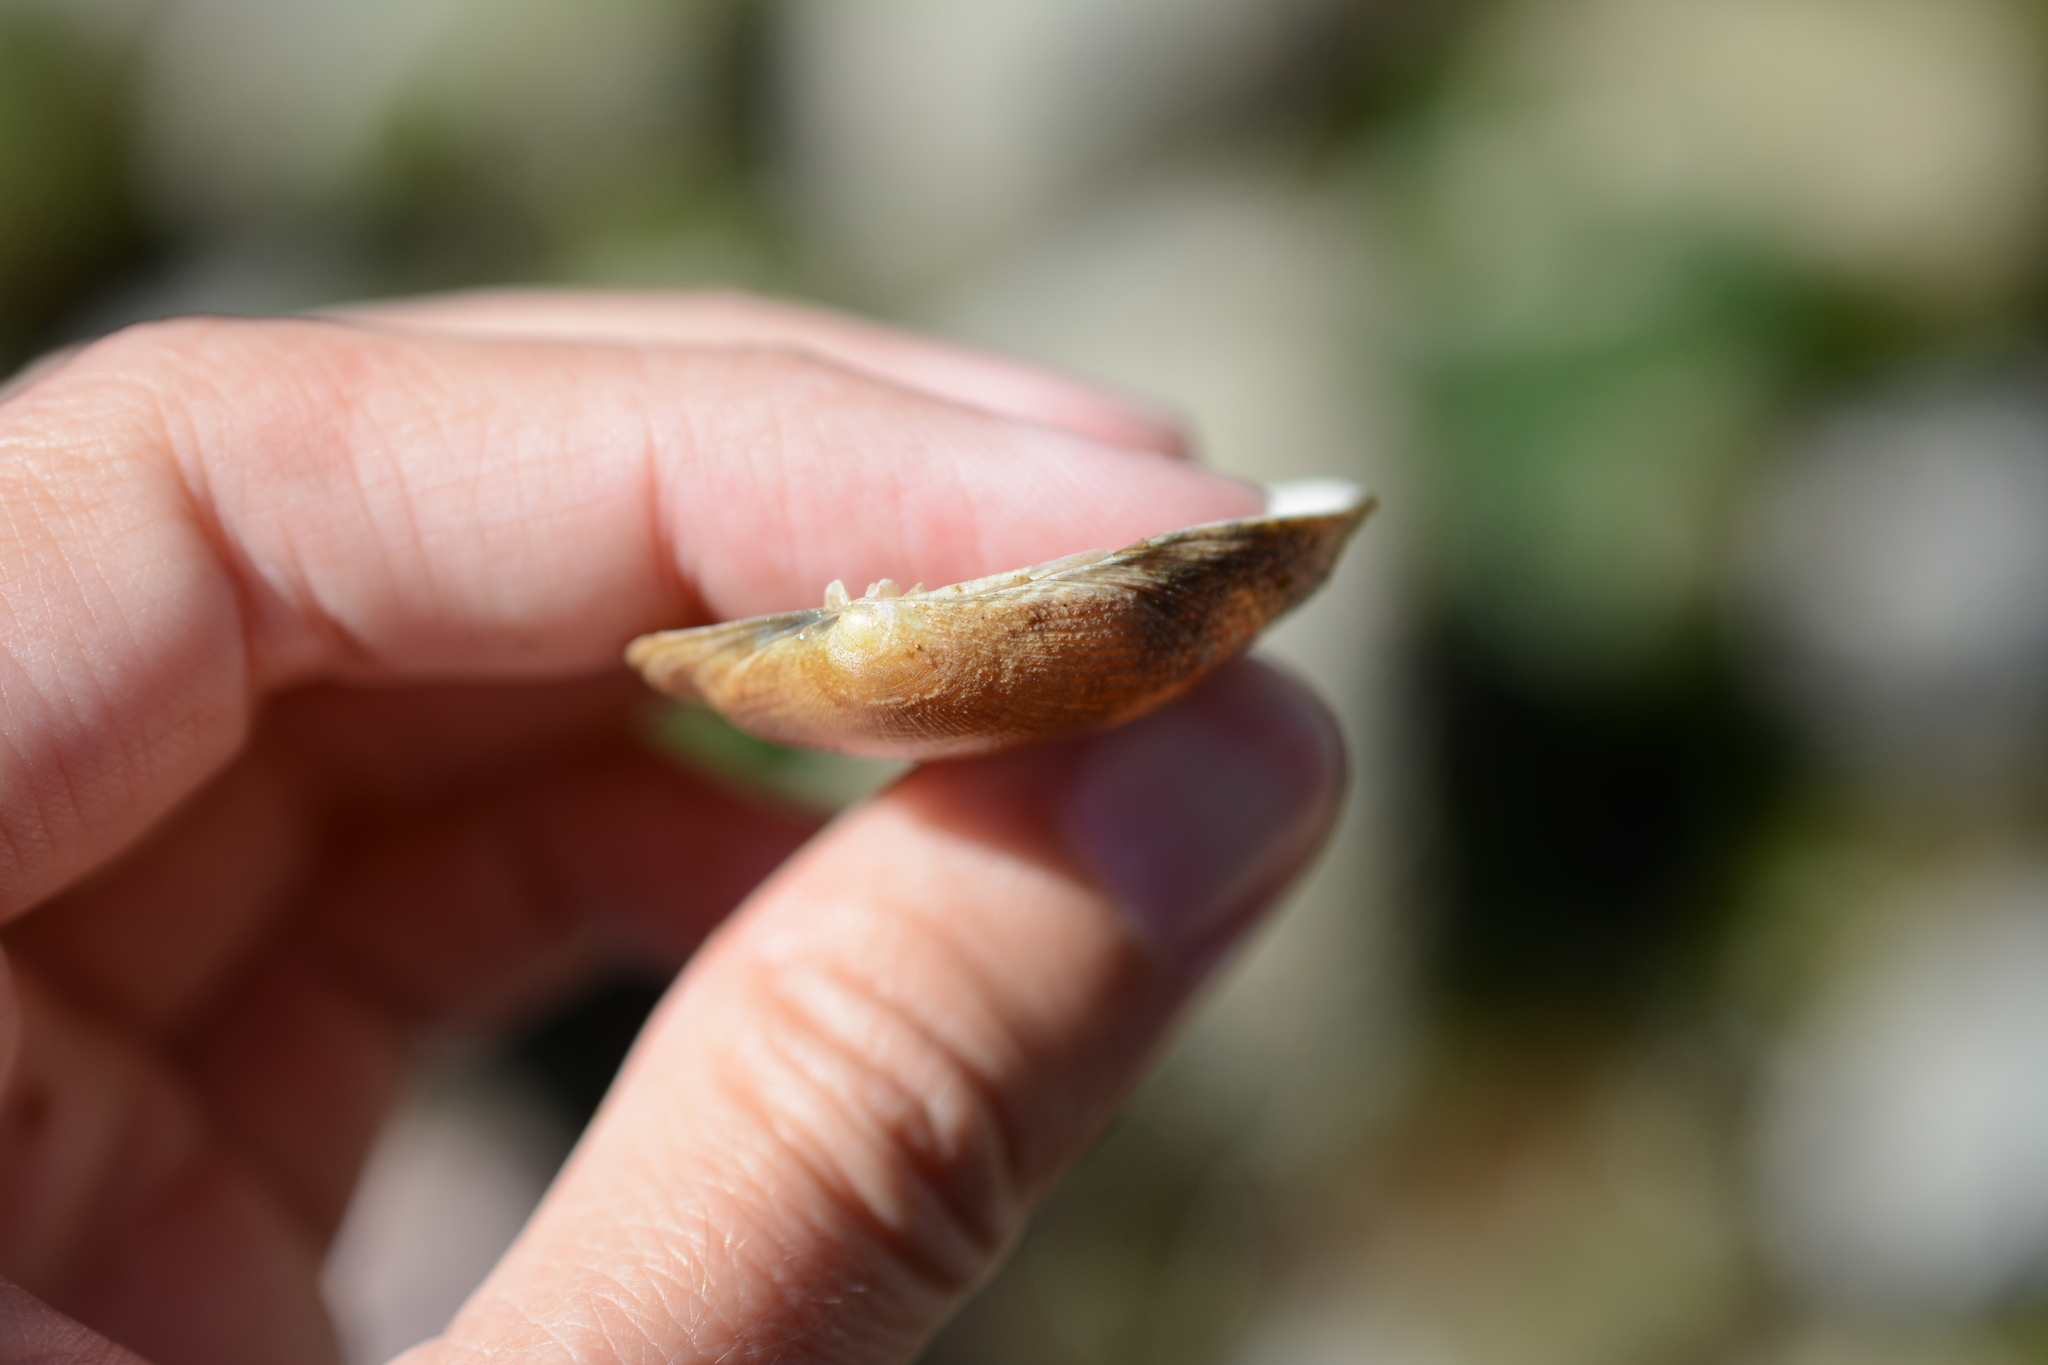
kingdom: Animalia
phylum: Mollusca
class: Bivalvia
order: Venerida
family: Veneridae
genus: Ruditapes
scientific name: Ruditapes philippinarum
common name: Manila clam
